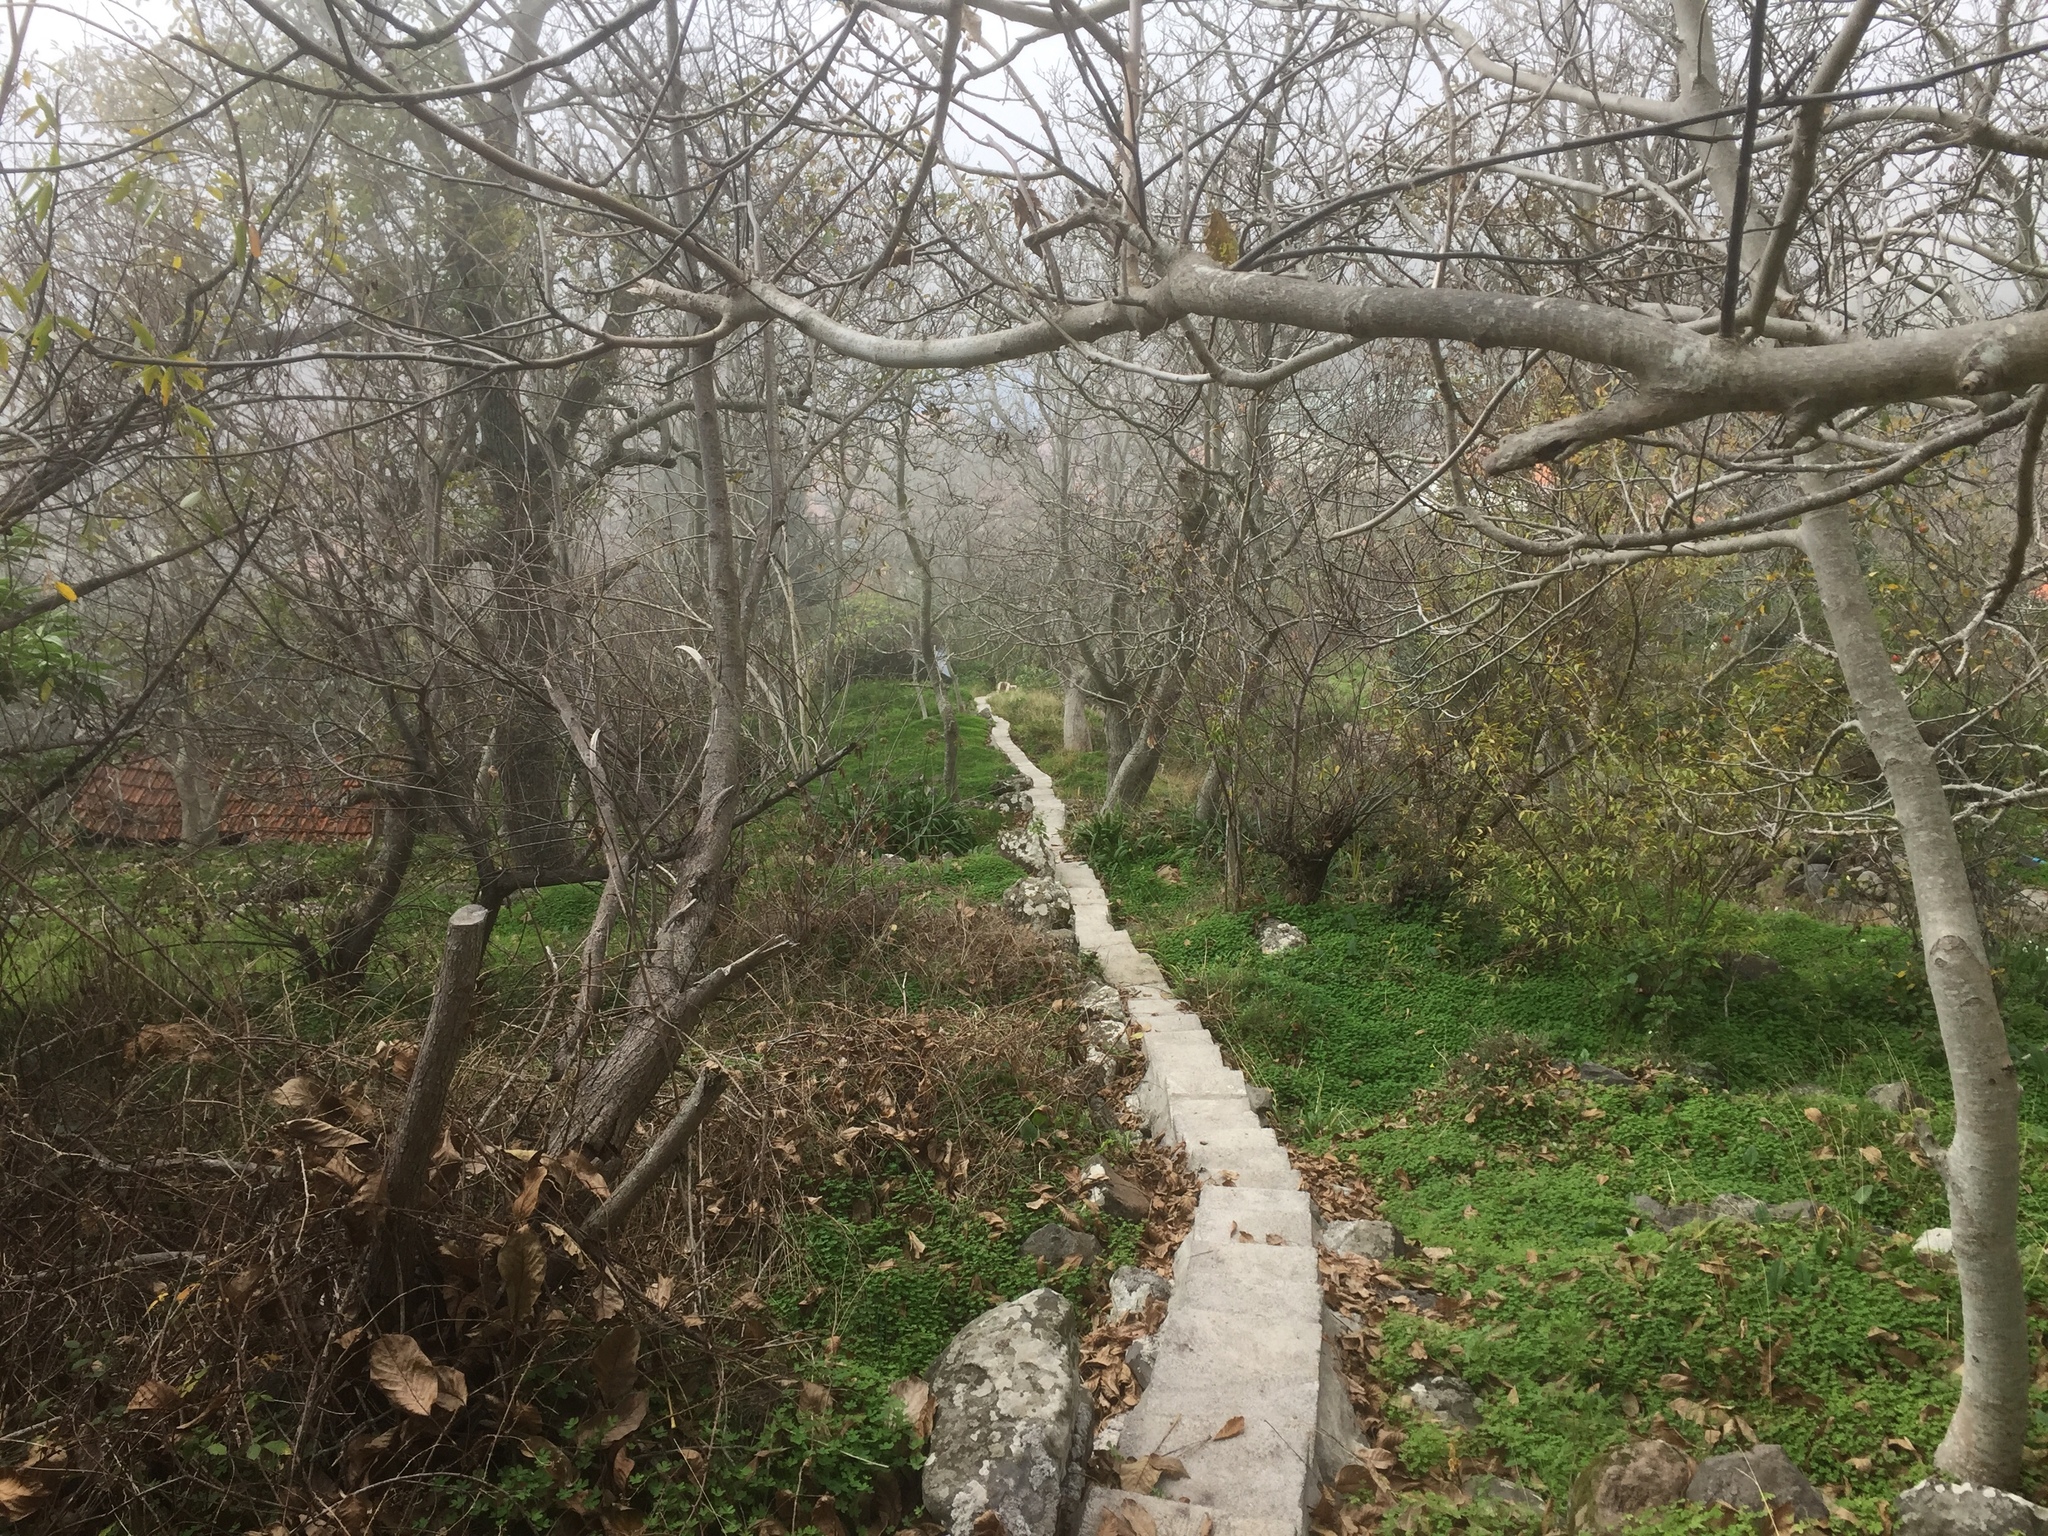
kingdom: Plantae
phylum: Tracheophyta
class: Magnoliopsida
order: Fagales
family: Juglandaceae
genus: Juglans
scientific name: Juglans regia
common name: Walnut
